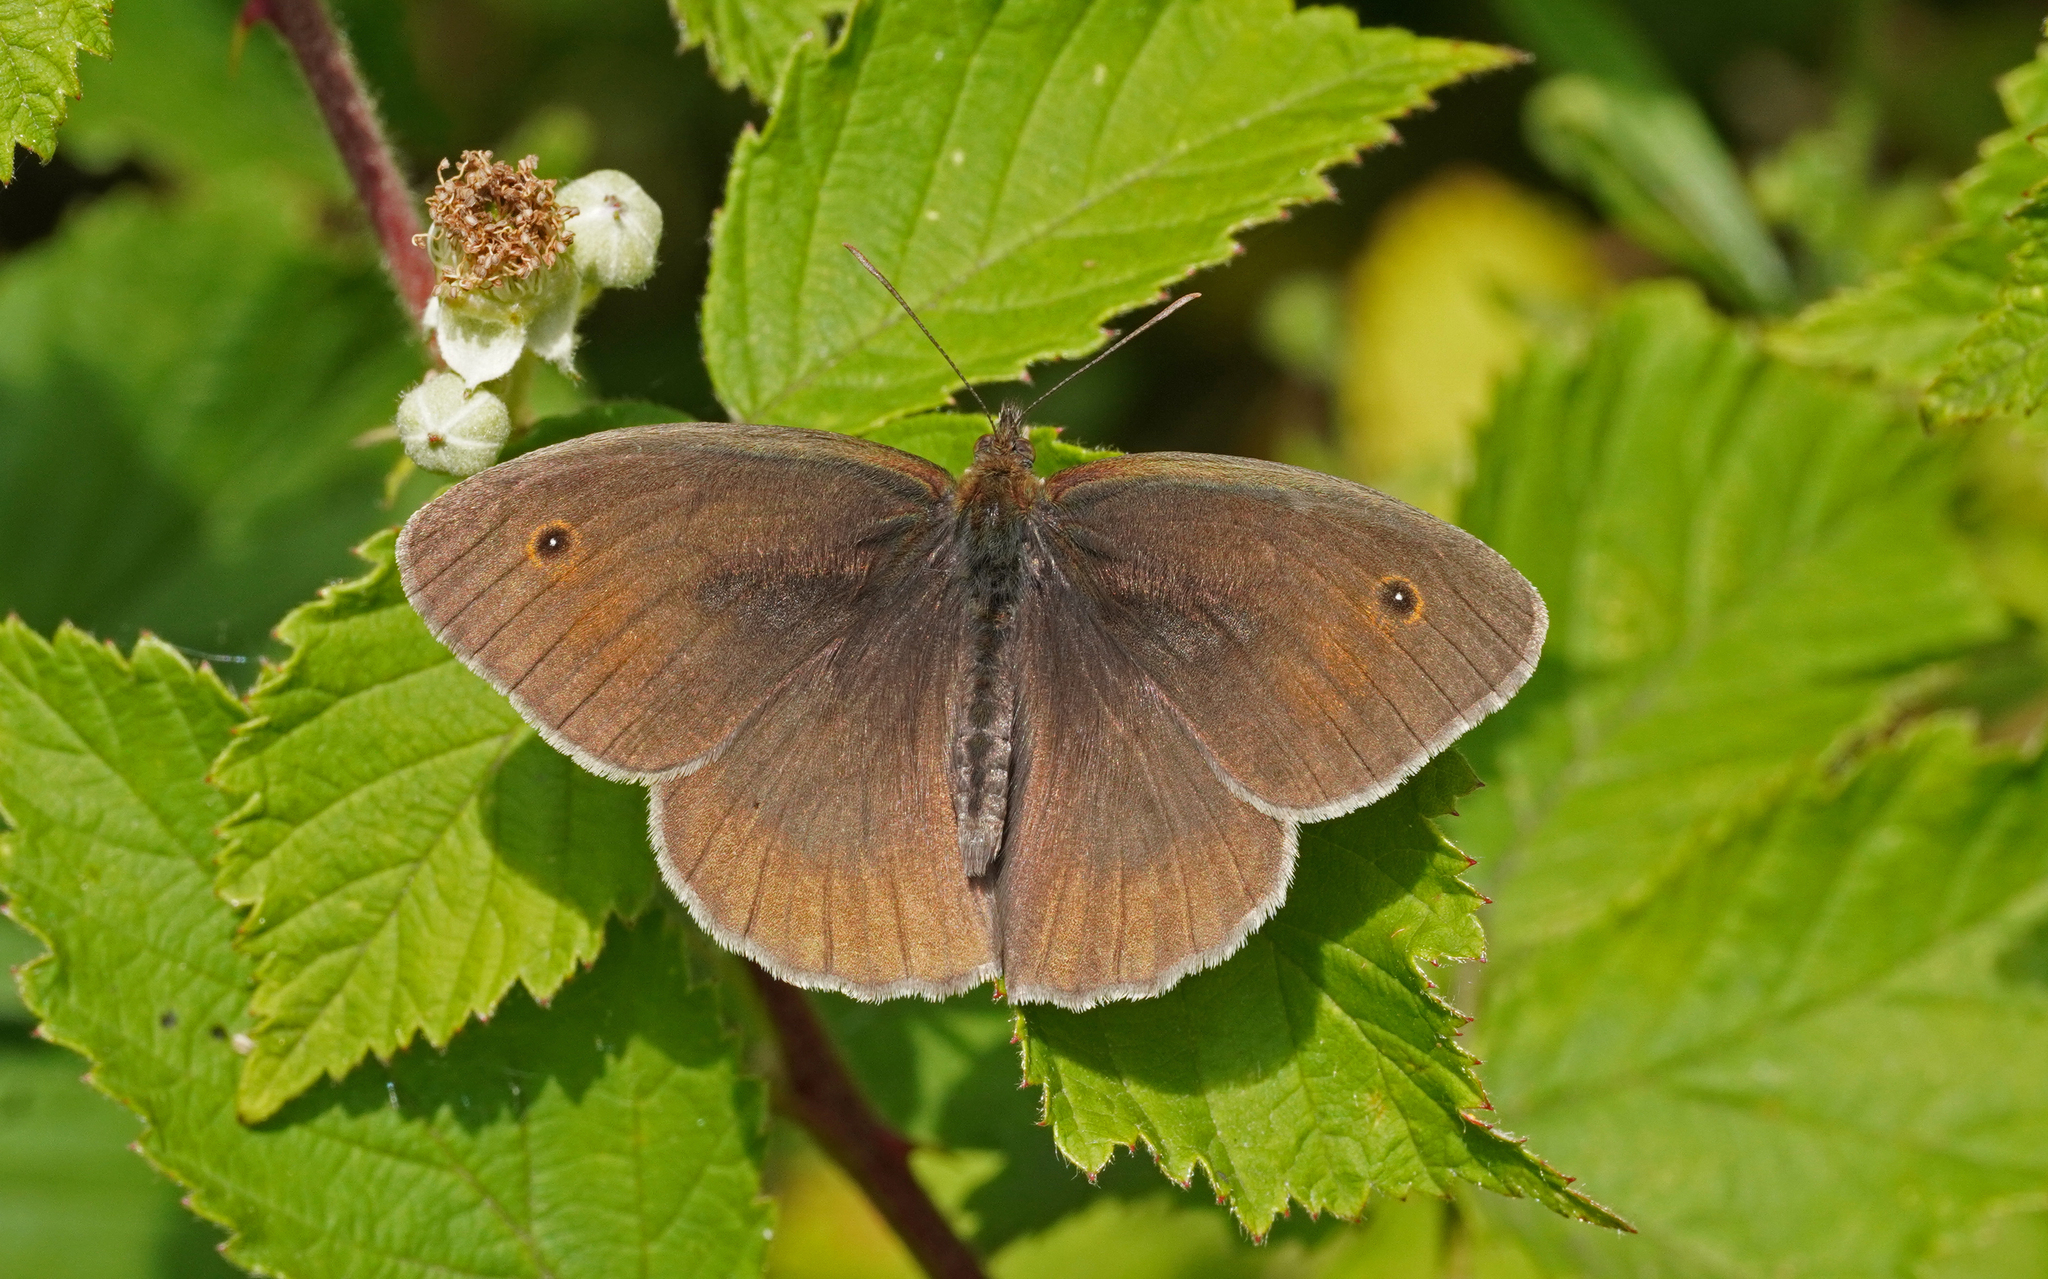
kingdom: Animalia
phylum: Arthropoda
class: Insecta
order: Lepidoptera
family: Nymphalidae
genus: Maniola
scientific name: Maniola jurtina
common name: Meadow brown
